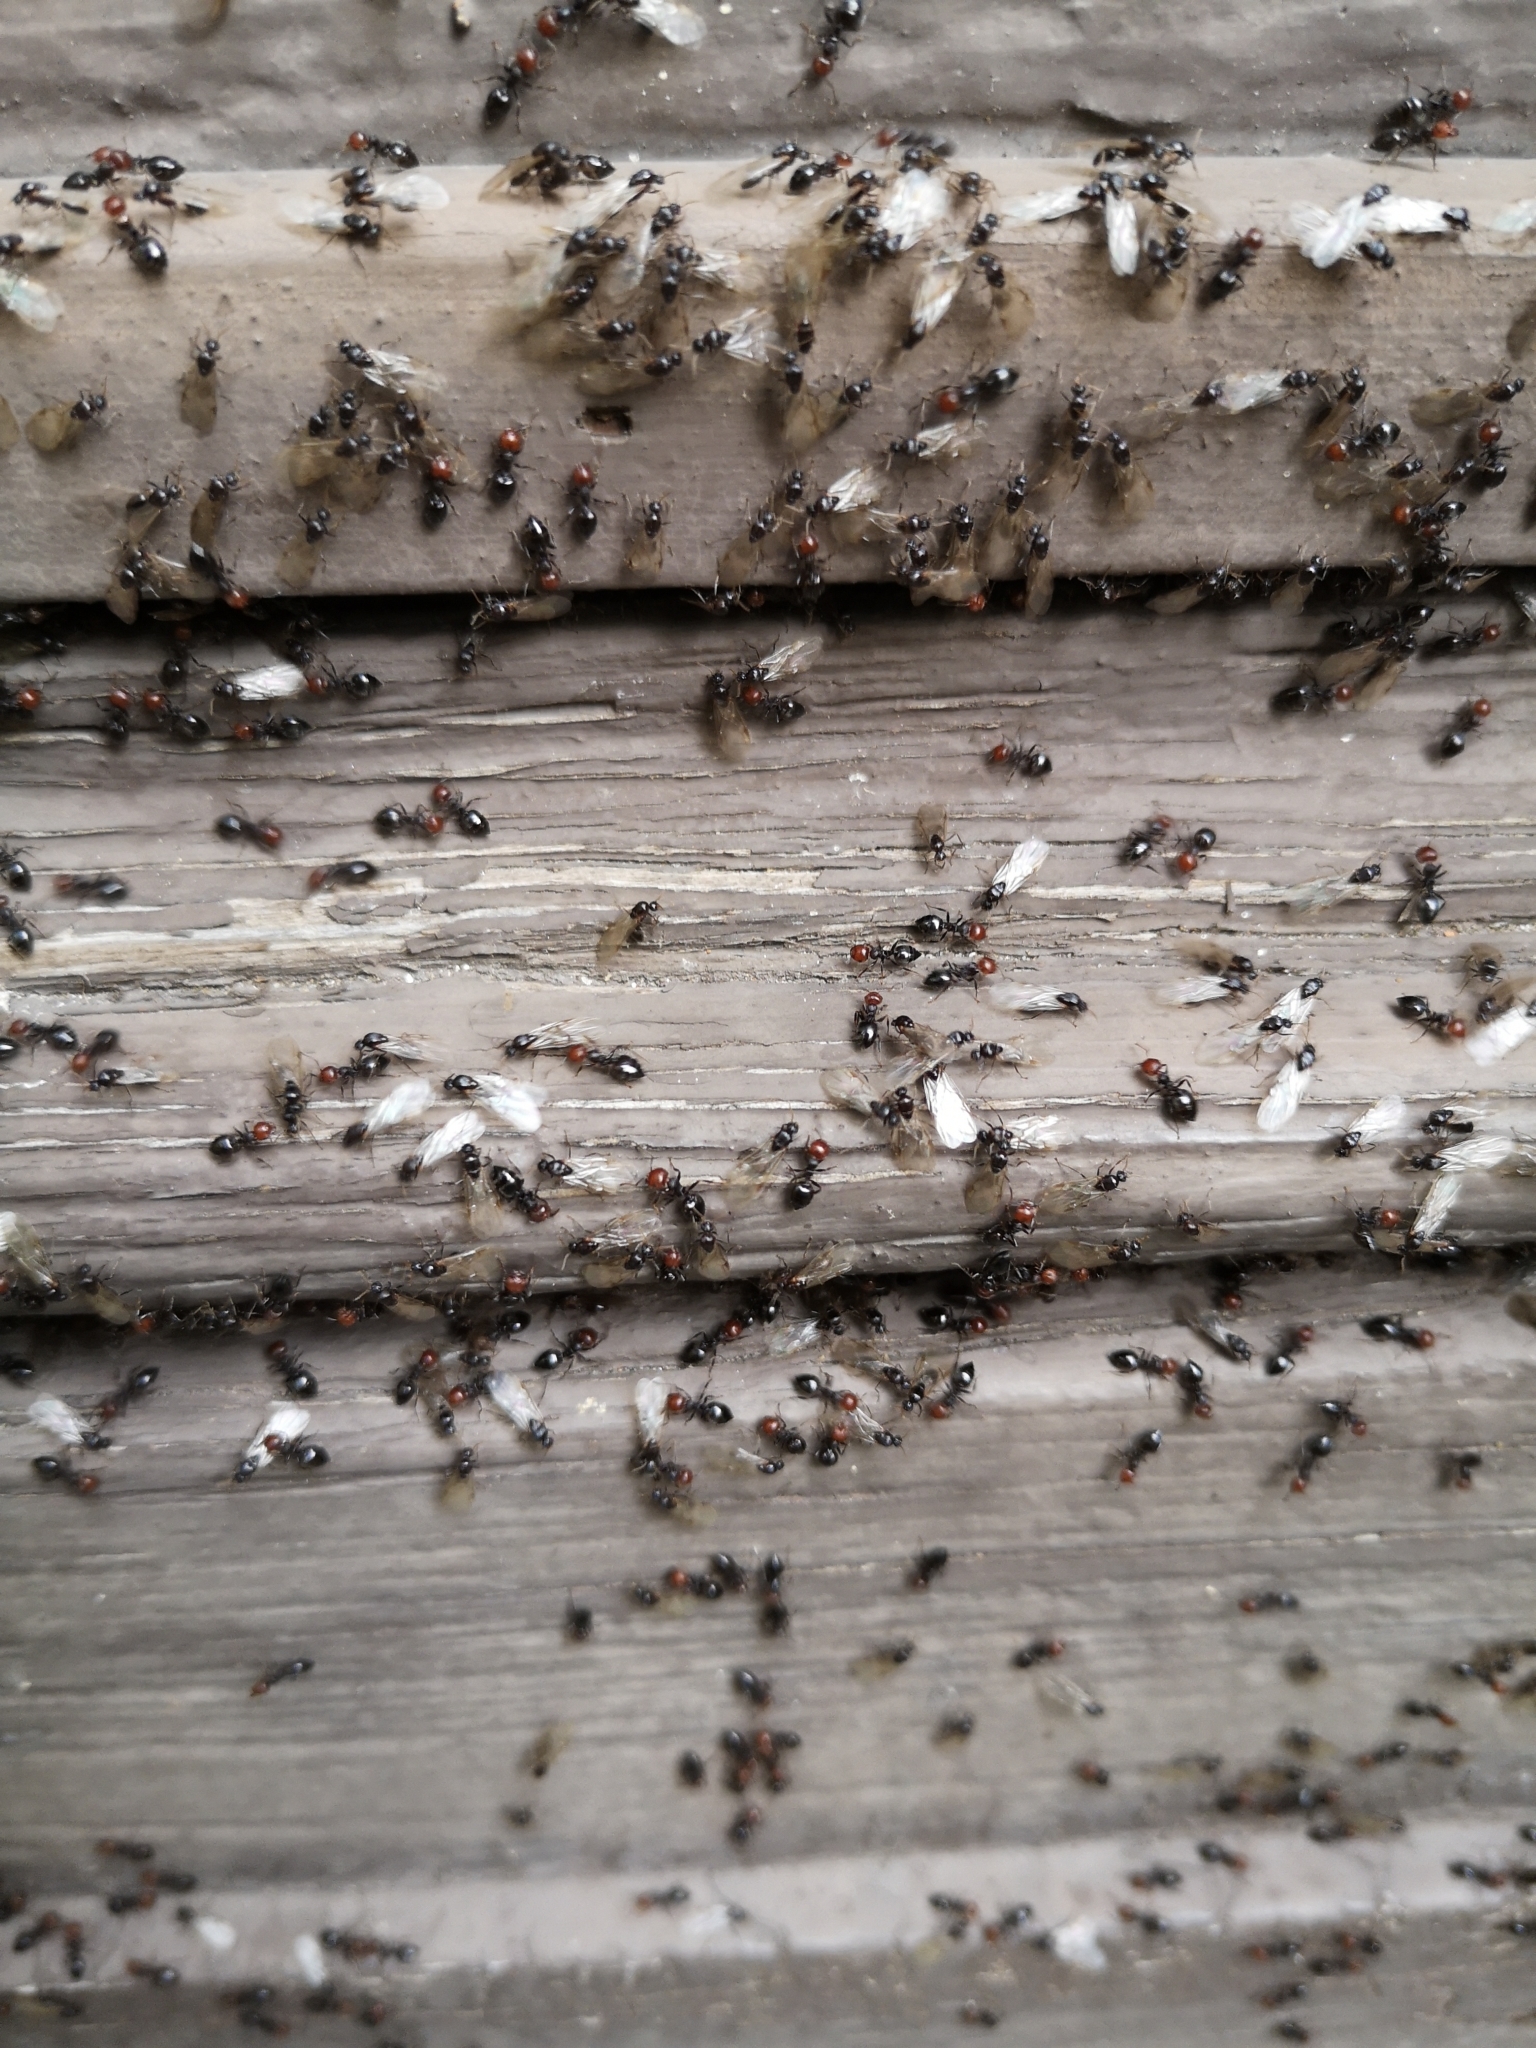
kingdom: Animalia
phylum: Arthropoda
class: Insecta
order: Hymenoptera
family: Formicidae
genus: Crematogaster
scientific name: Crematogaster scutellaris
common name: Fourmi du liège
